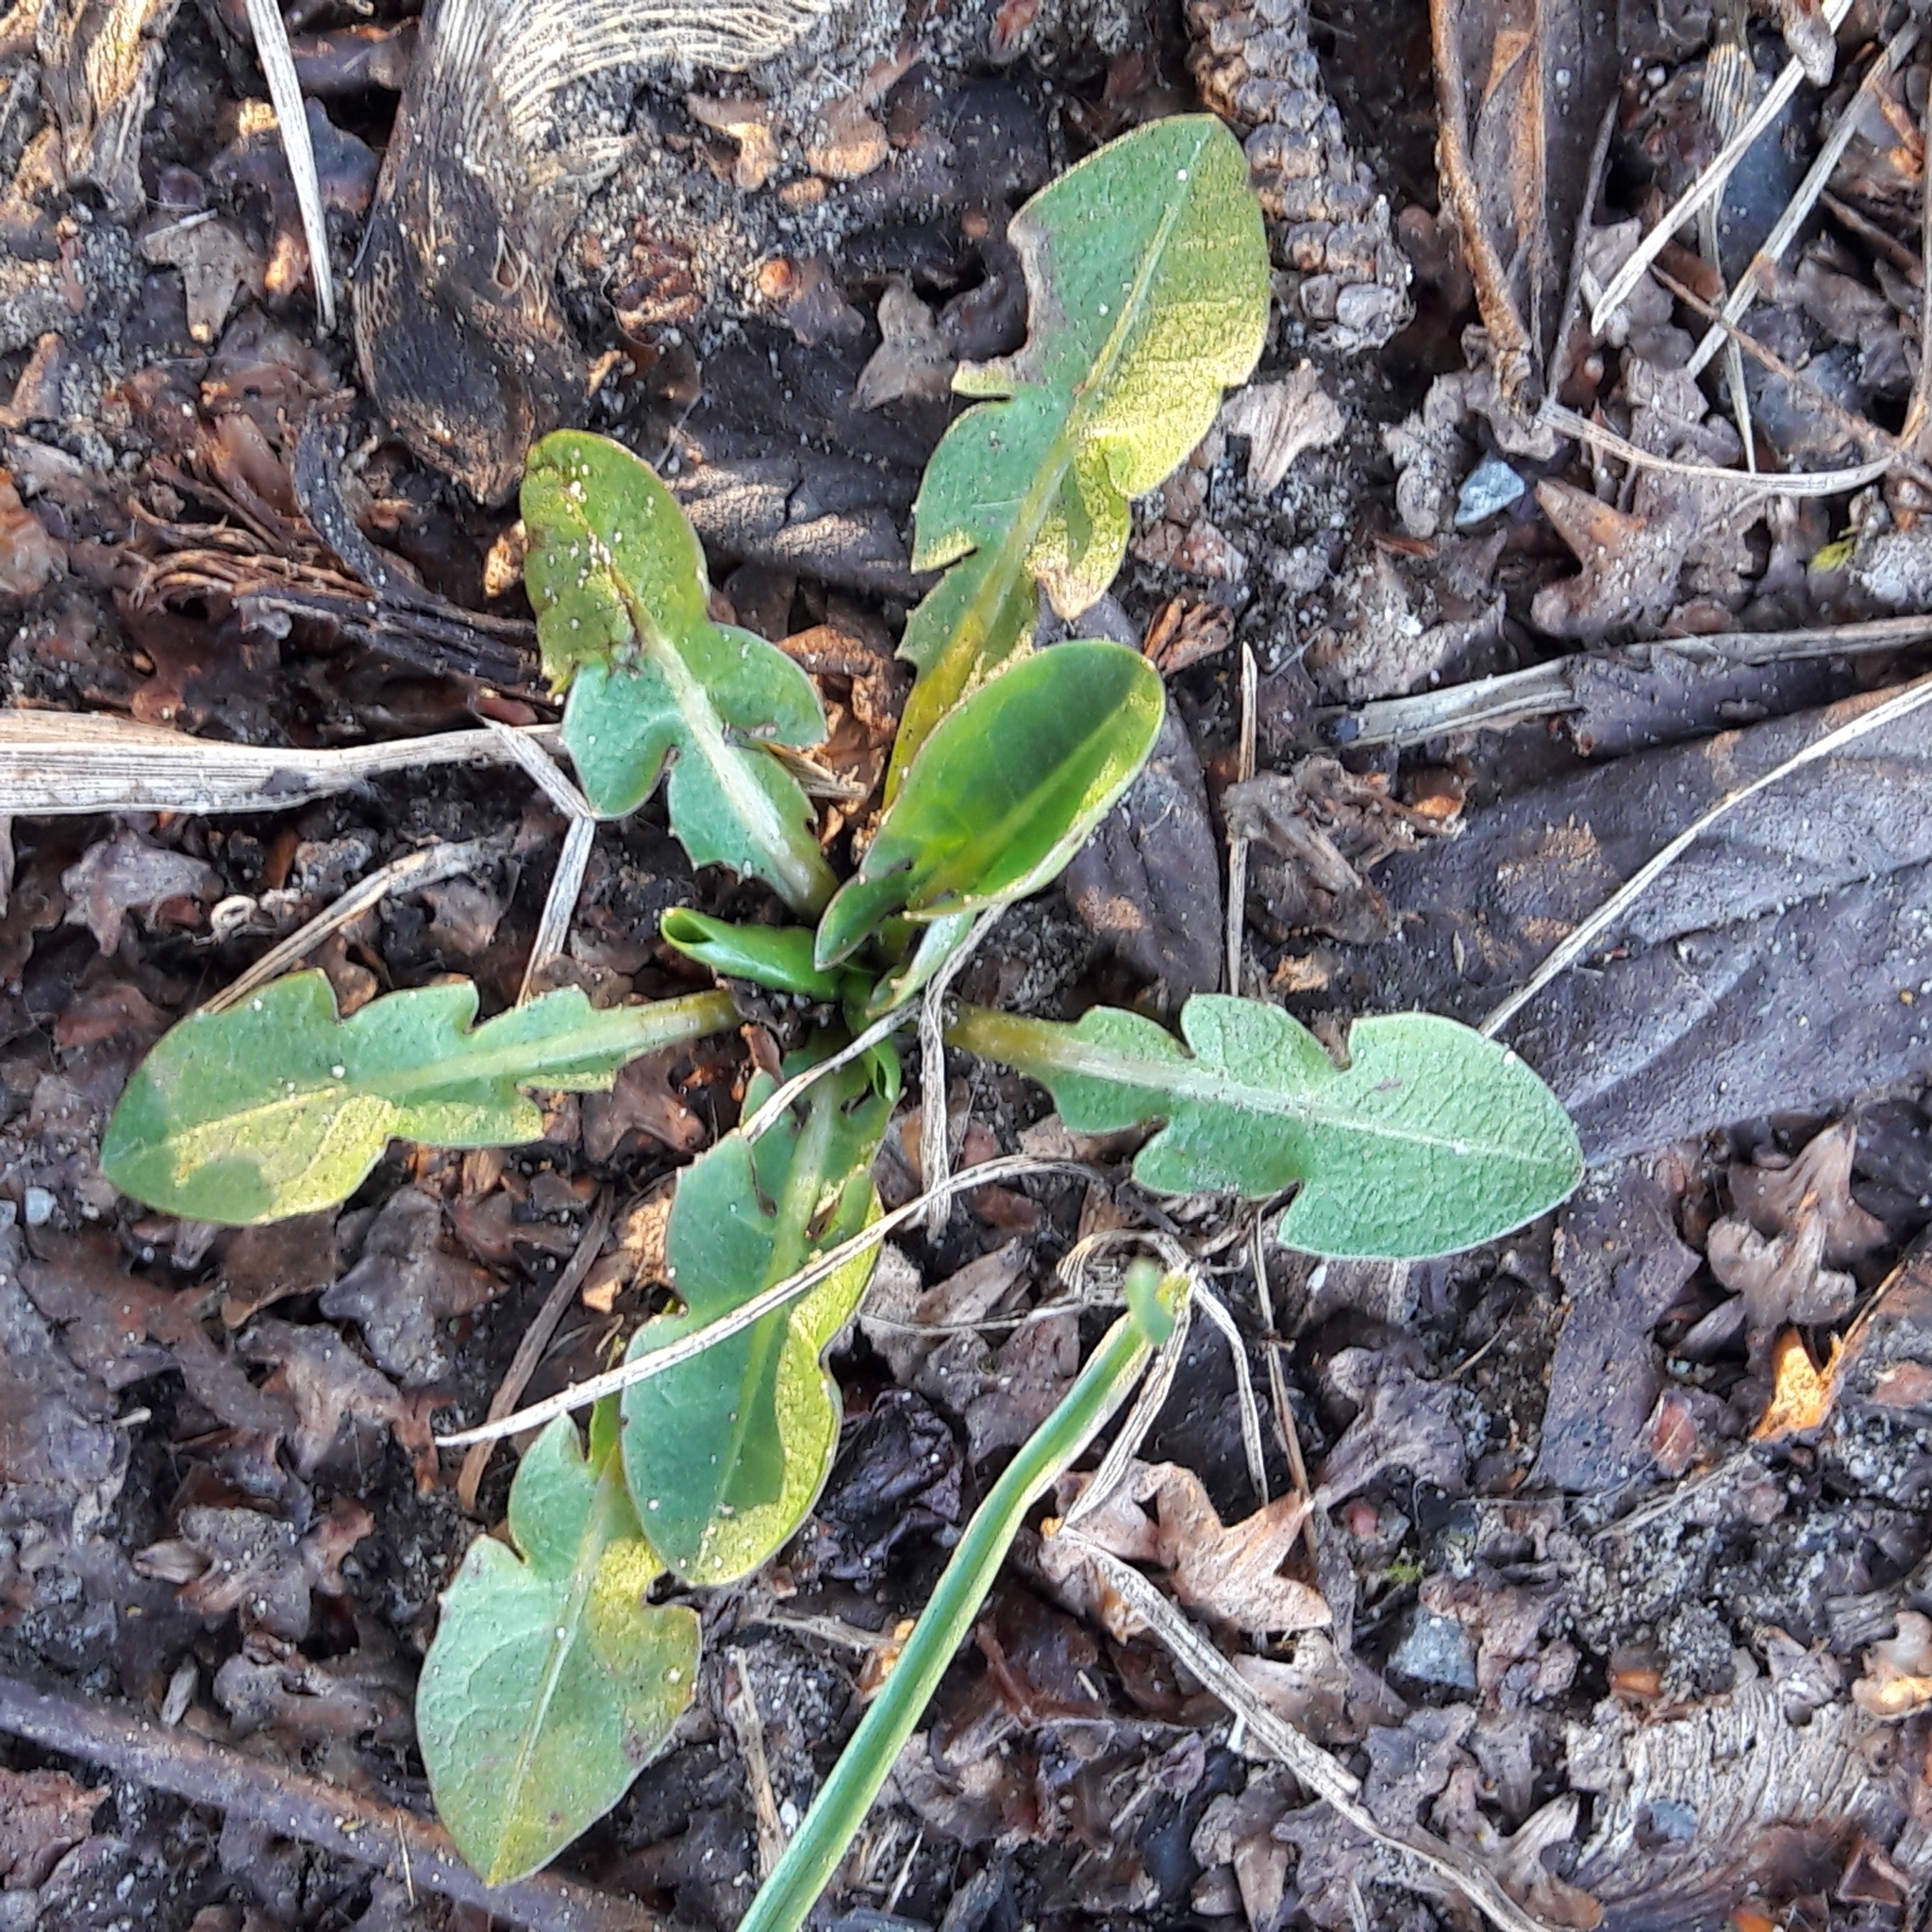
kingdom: Plantae
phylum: Tracheophyta
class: Magnoliopsida
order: Asterales
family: Asteraceae
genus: Taraxacum
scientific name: Taraxacum officinale
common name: Common dandelion
